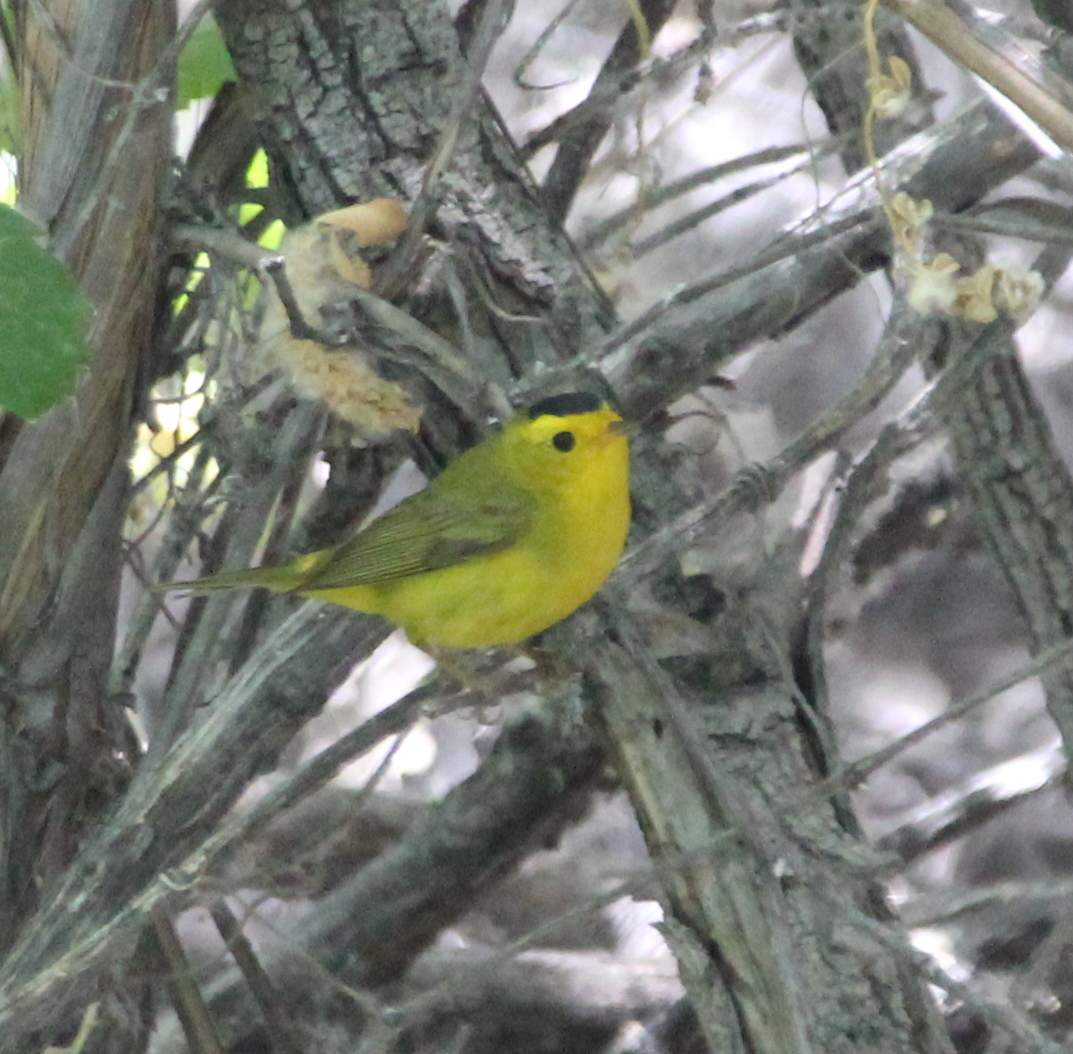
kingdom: Animalia
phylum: Chordata
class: Aves
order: Passeriformes
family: Parulidae
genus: Cardellina
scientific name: Cardellina pusilla
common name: Wilson's warbler
